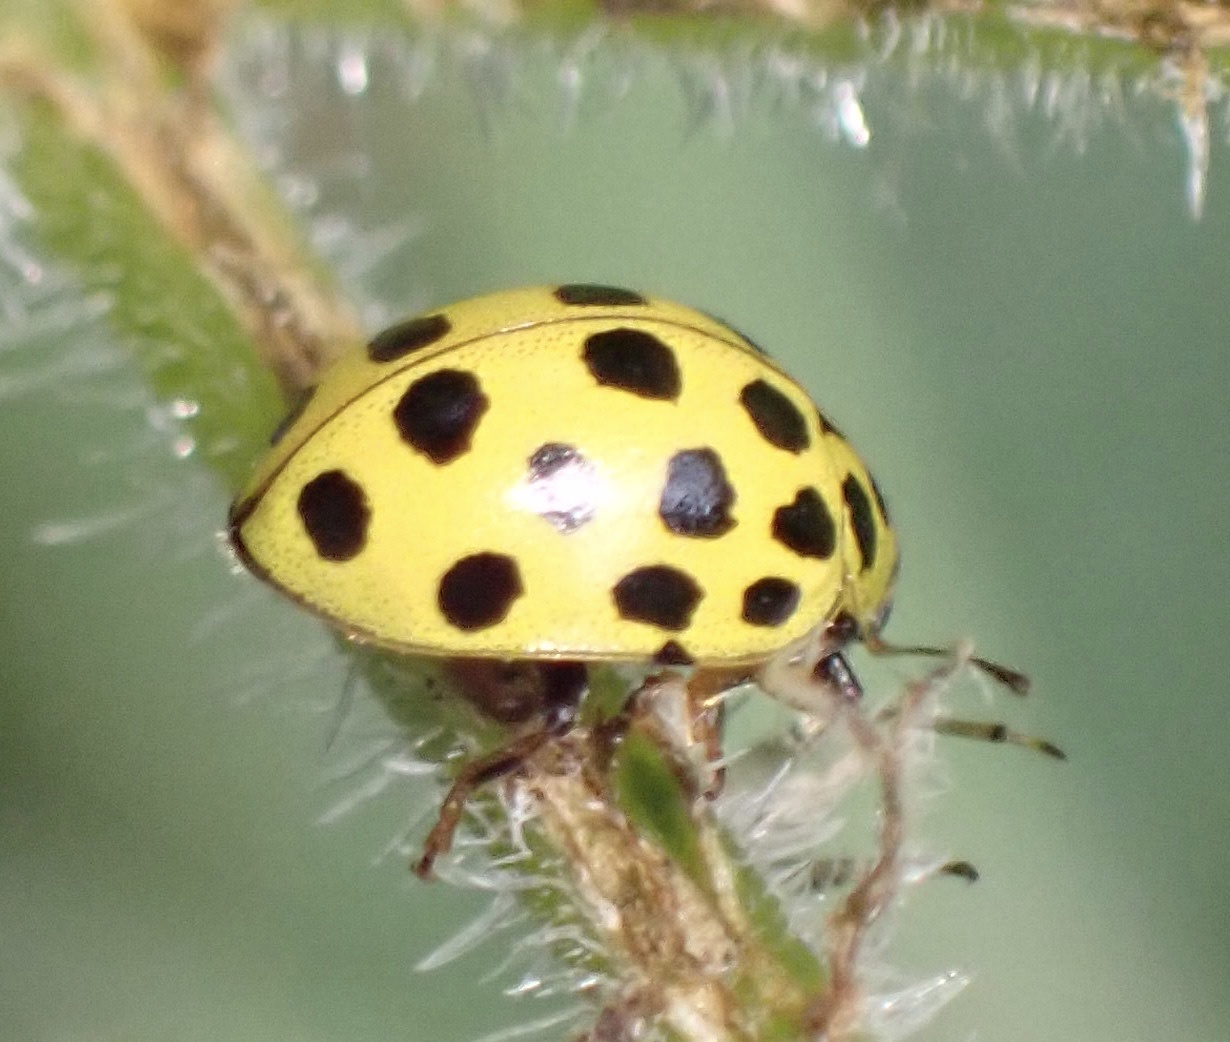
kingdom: Animalia
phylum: Arthropoda
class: Insecta
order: Coleoptera
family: Coccinellidae
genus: Psyllobora
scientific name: Psyllobora vigintiduopunctata
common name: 22-spot ladybird
